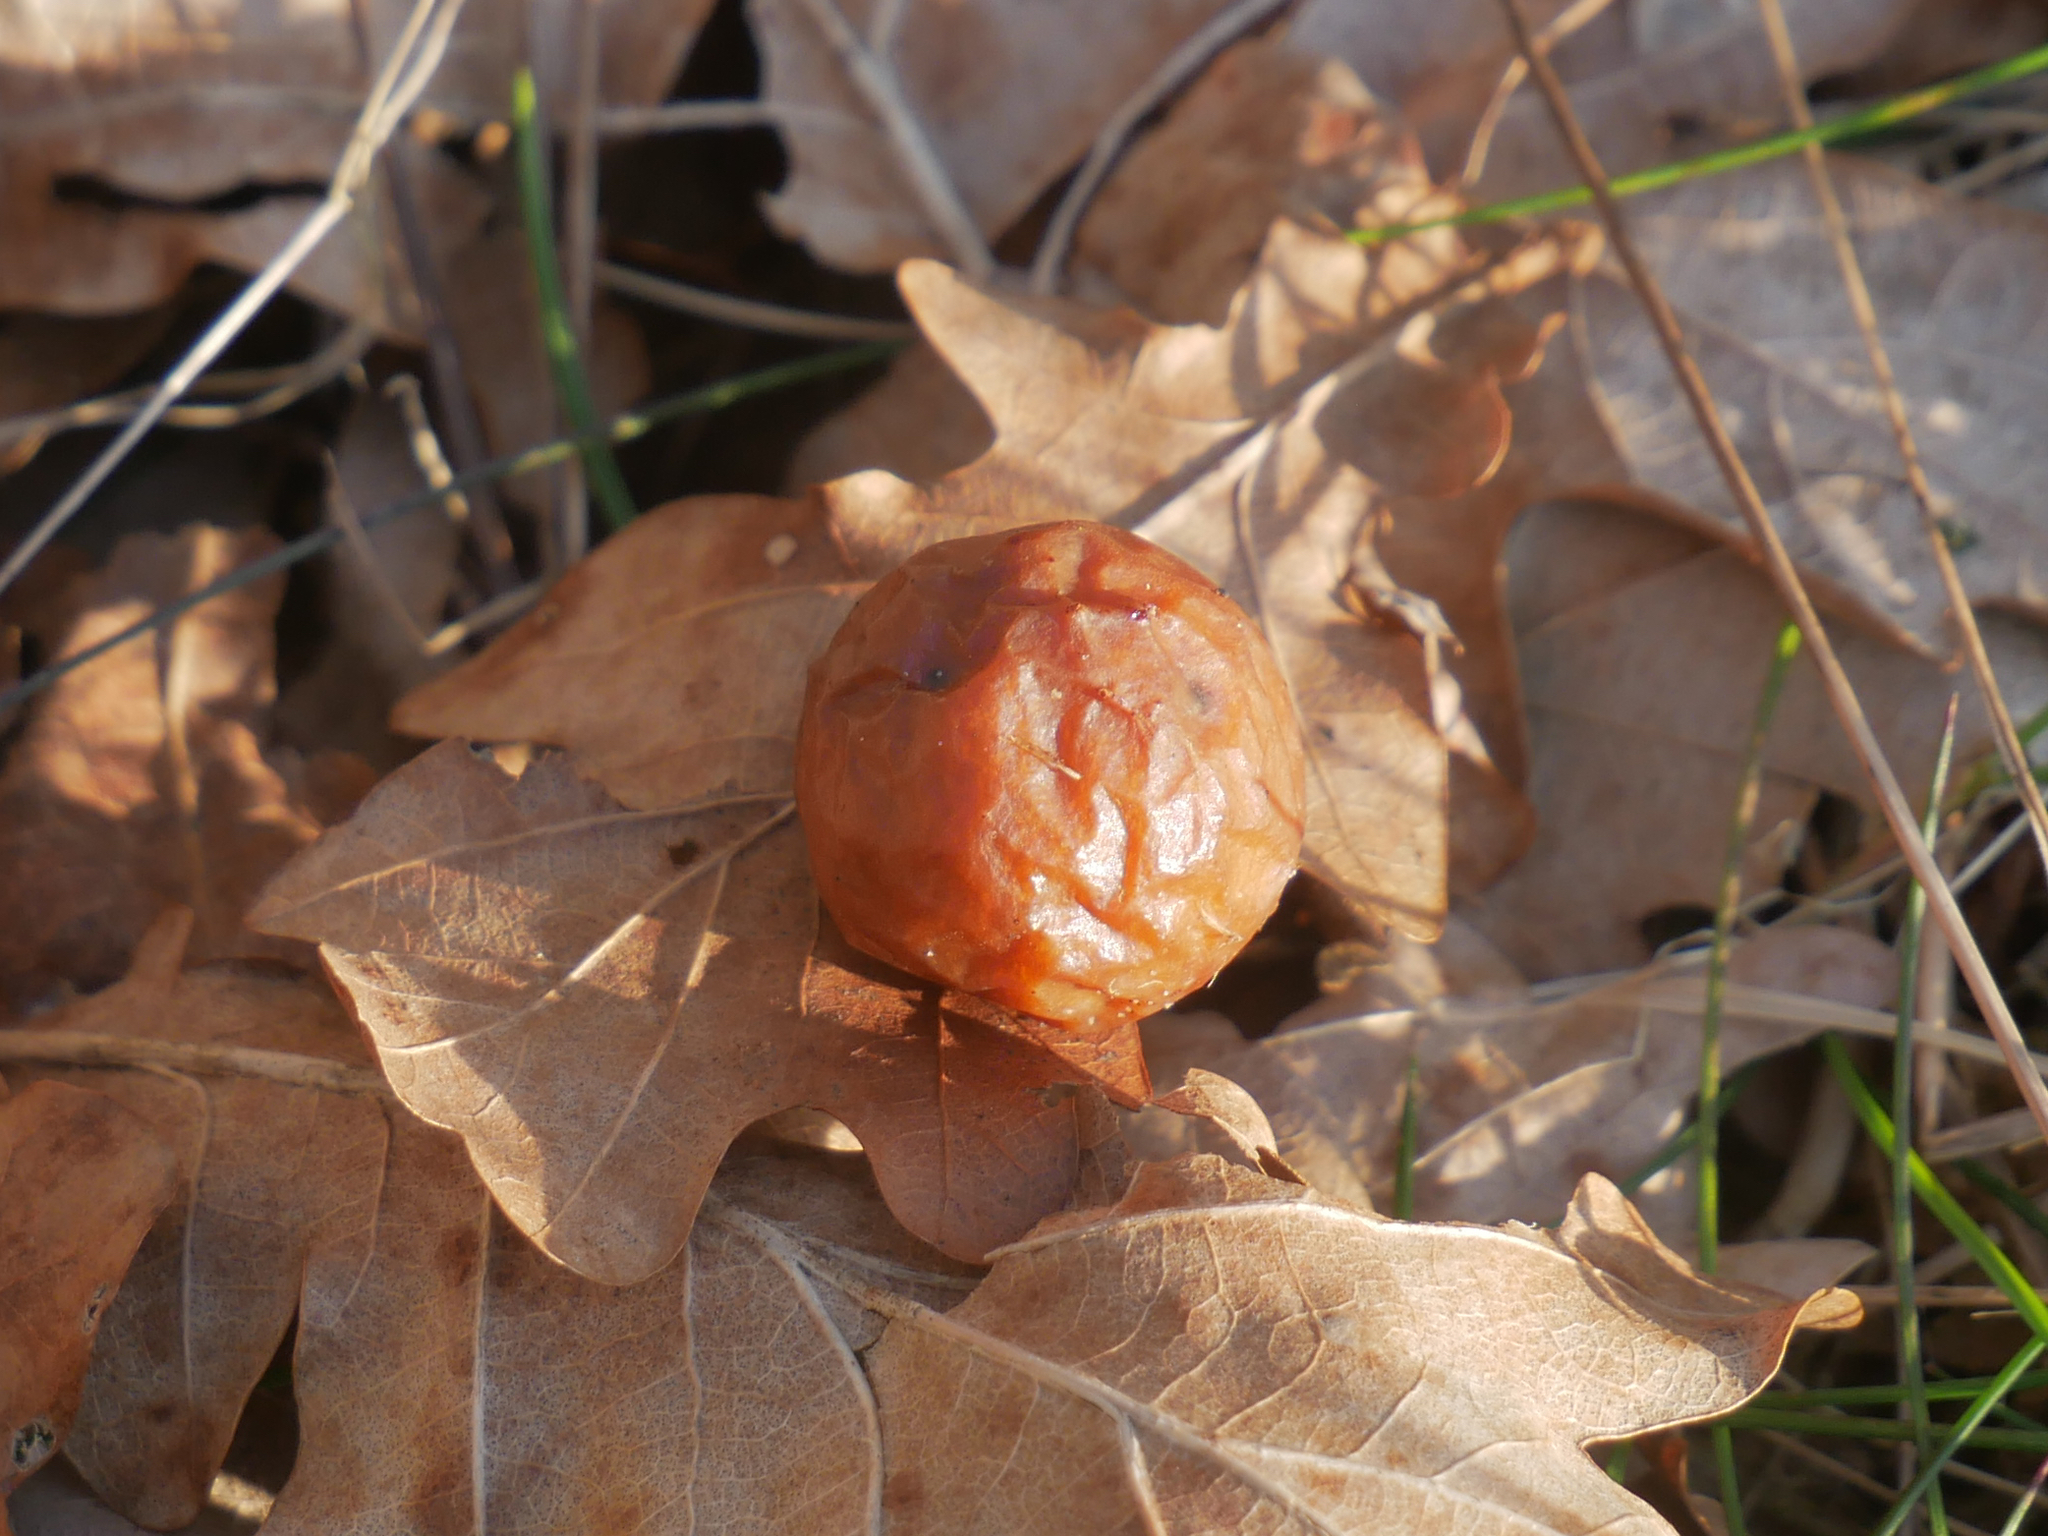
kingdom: Animalia
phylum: Arthropoda
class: Insecta
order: Hymenoptera
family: Cynipidae
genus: Cynips
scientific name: Cynips quercusfolii
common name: Cherry gall
